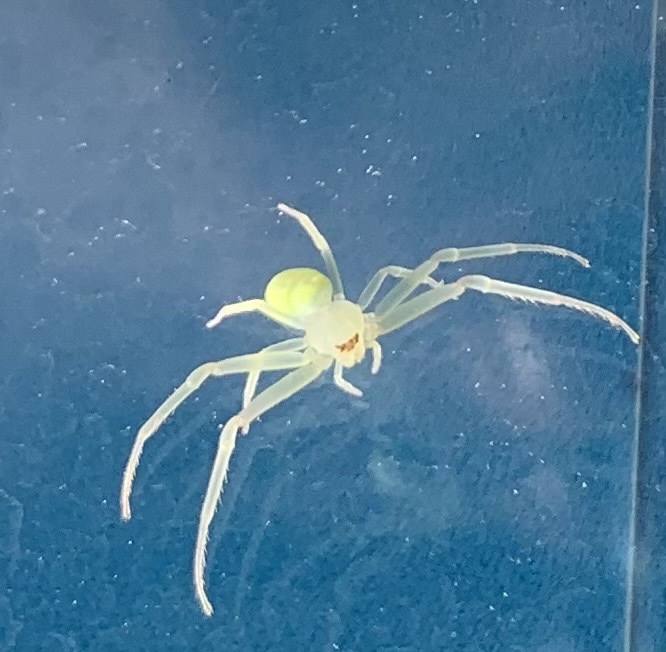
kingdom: Animalia
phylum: Arthropoda
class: Arachnida
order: Araneae
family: Thomisidae
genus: Misumessus
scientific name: Misumessus oblongus
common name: American green crab spider
